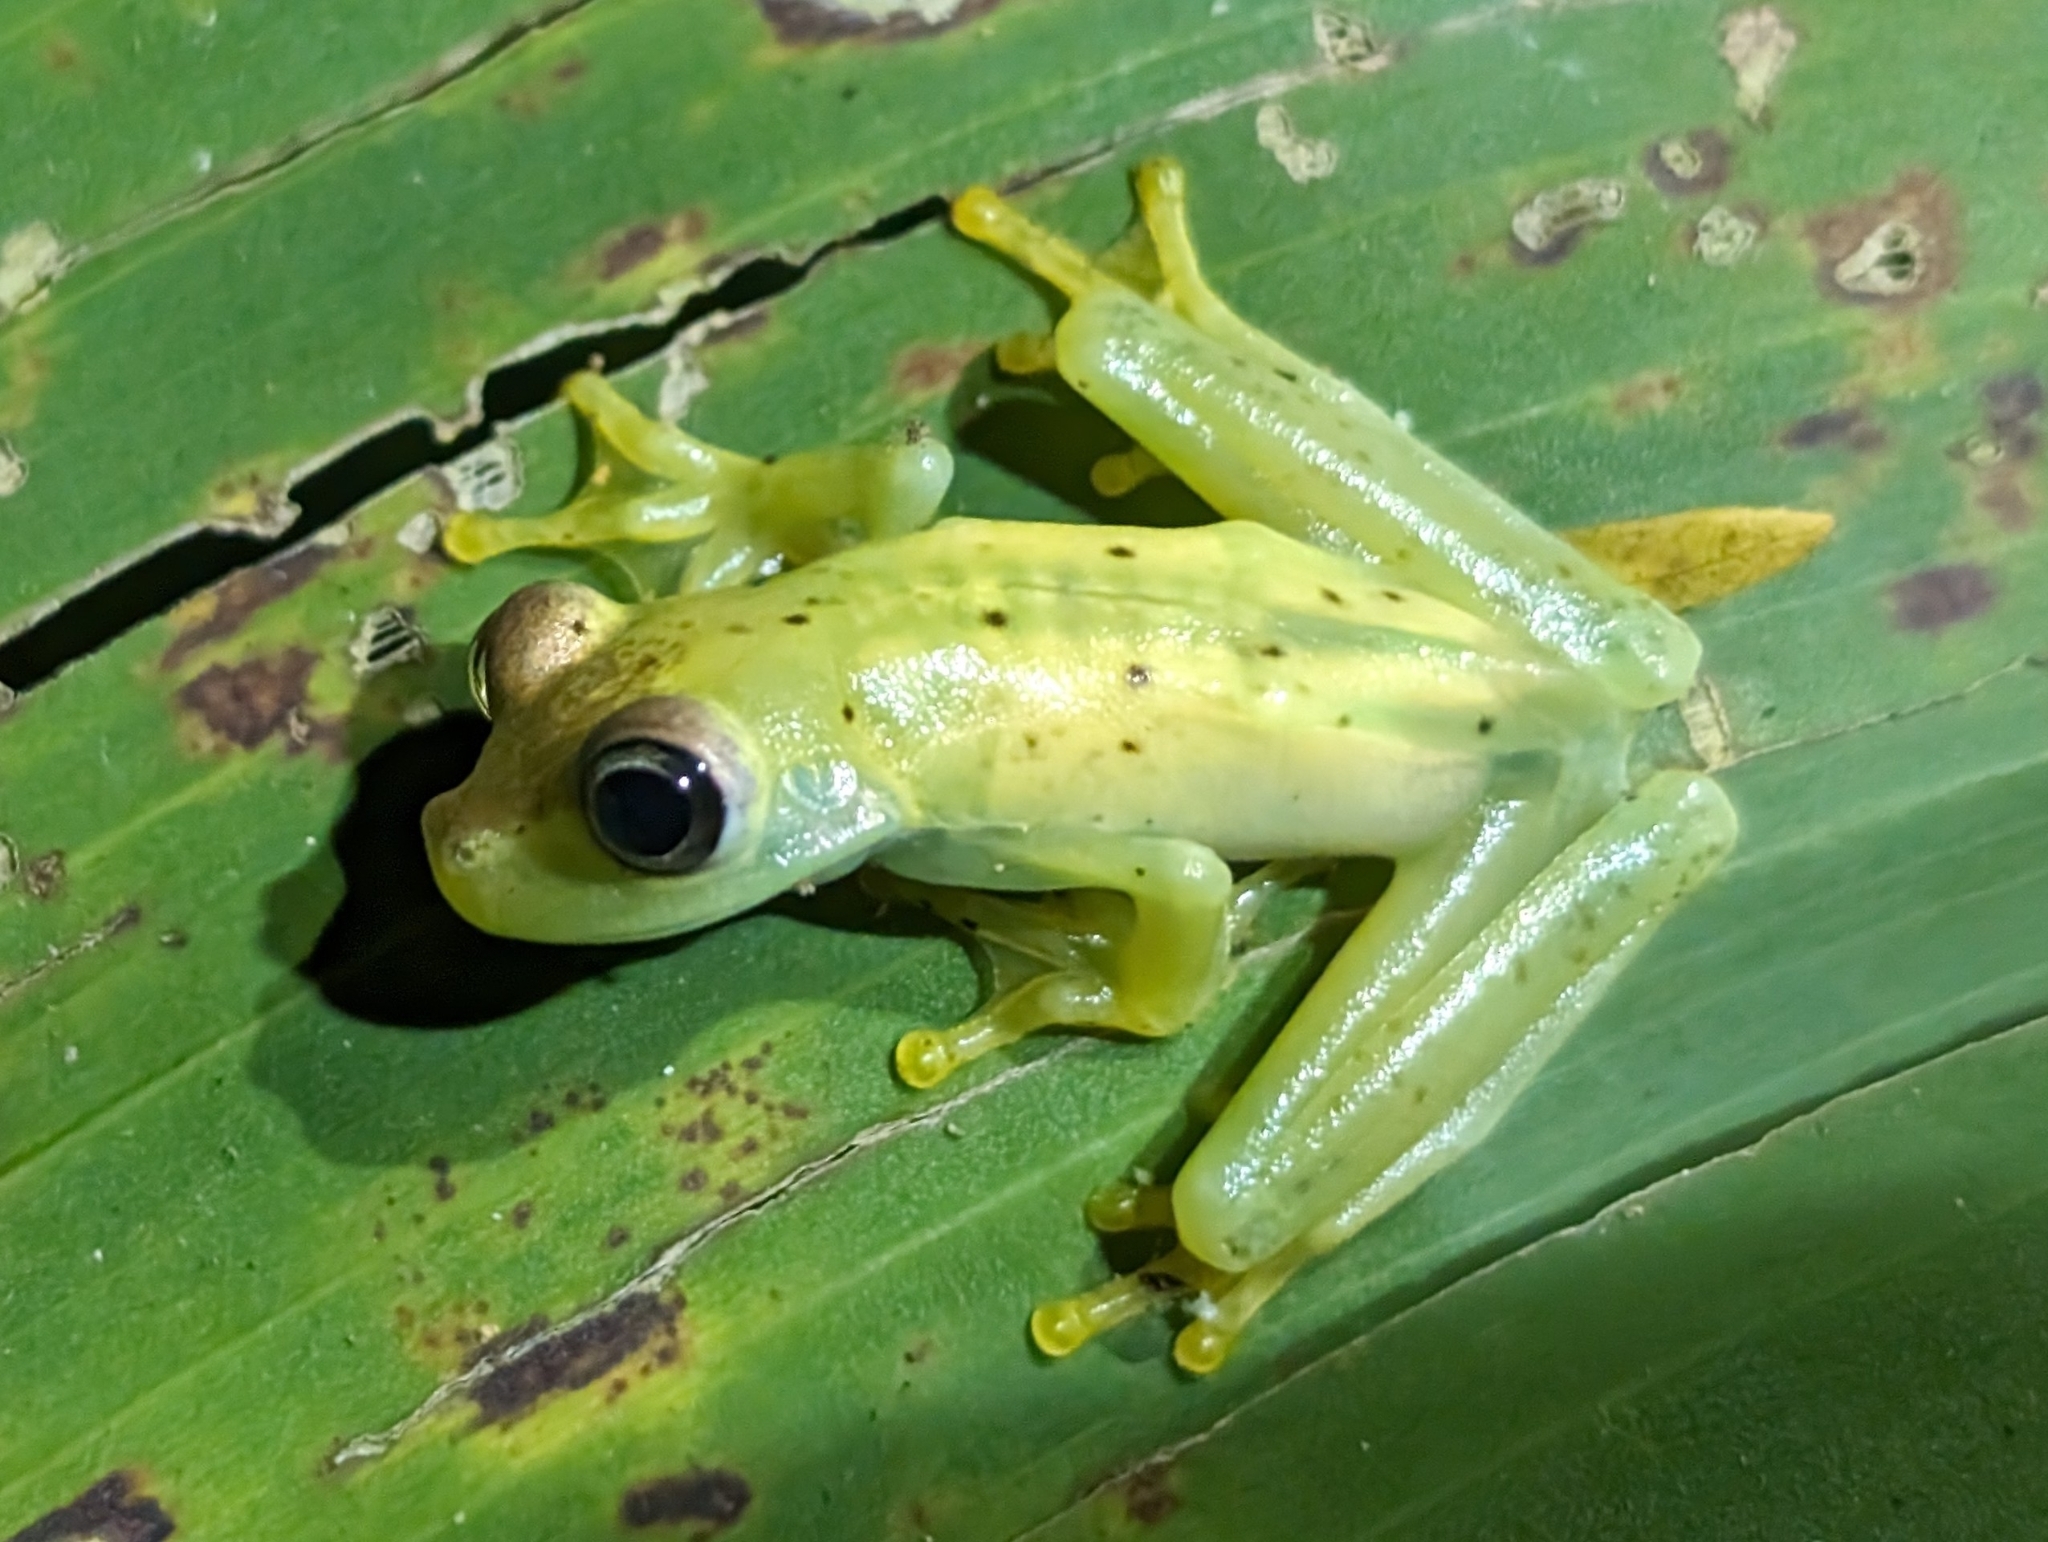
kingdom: Animalia
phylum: Chordata
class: Amphibia
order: Anura
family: Hylidae
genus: Boana
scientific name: Boana rosenbergi
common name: Rosenberg´s gladiator treefrog
